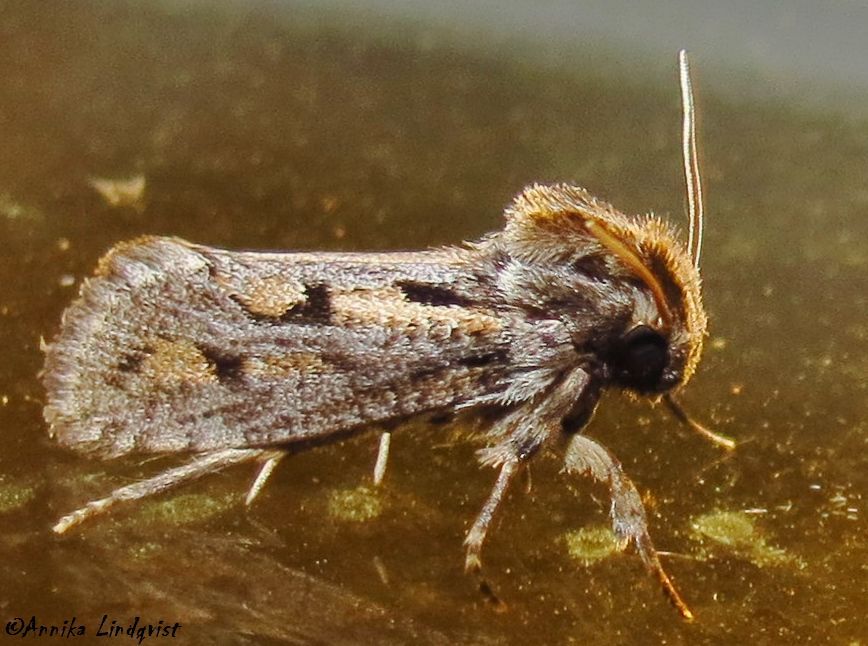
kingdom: Animalia
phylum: Arthropoda
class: Insecta
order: Lepidoptera
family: Tineidae
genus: Acrolophus
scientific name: Acrolophus popeanella
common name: Clemens' grass tubeworm moth
